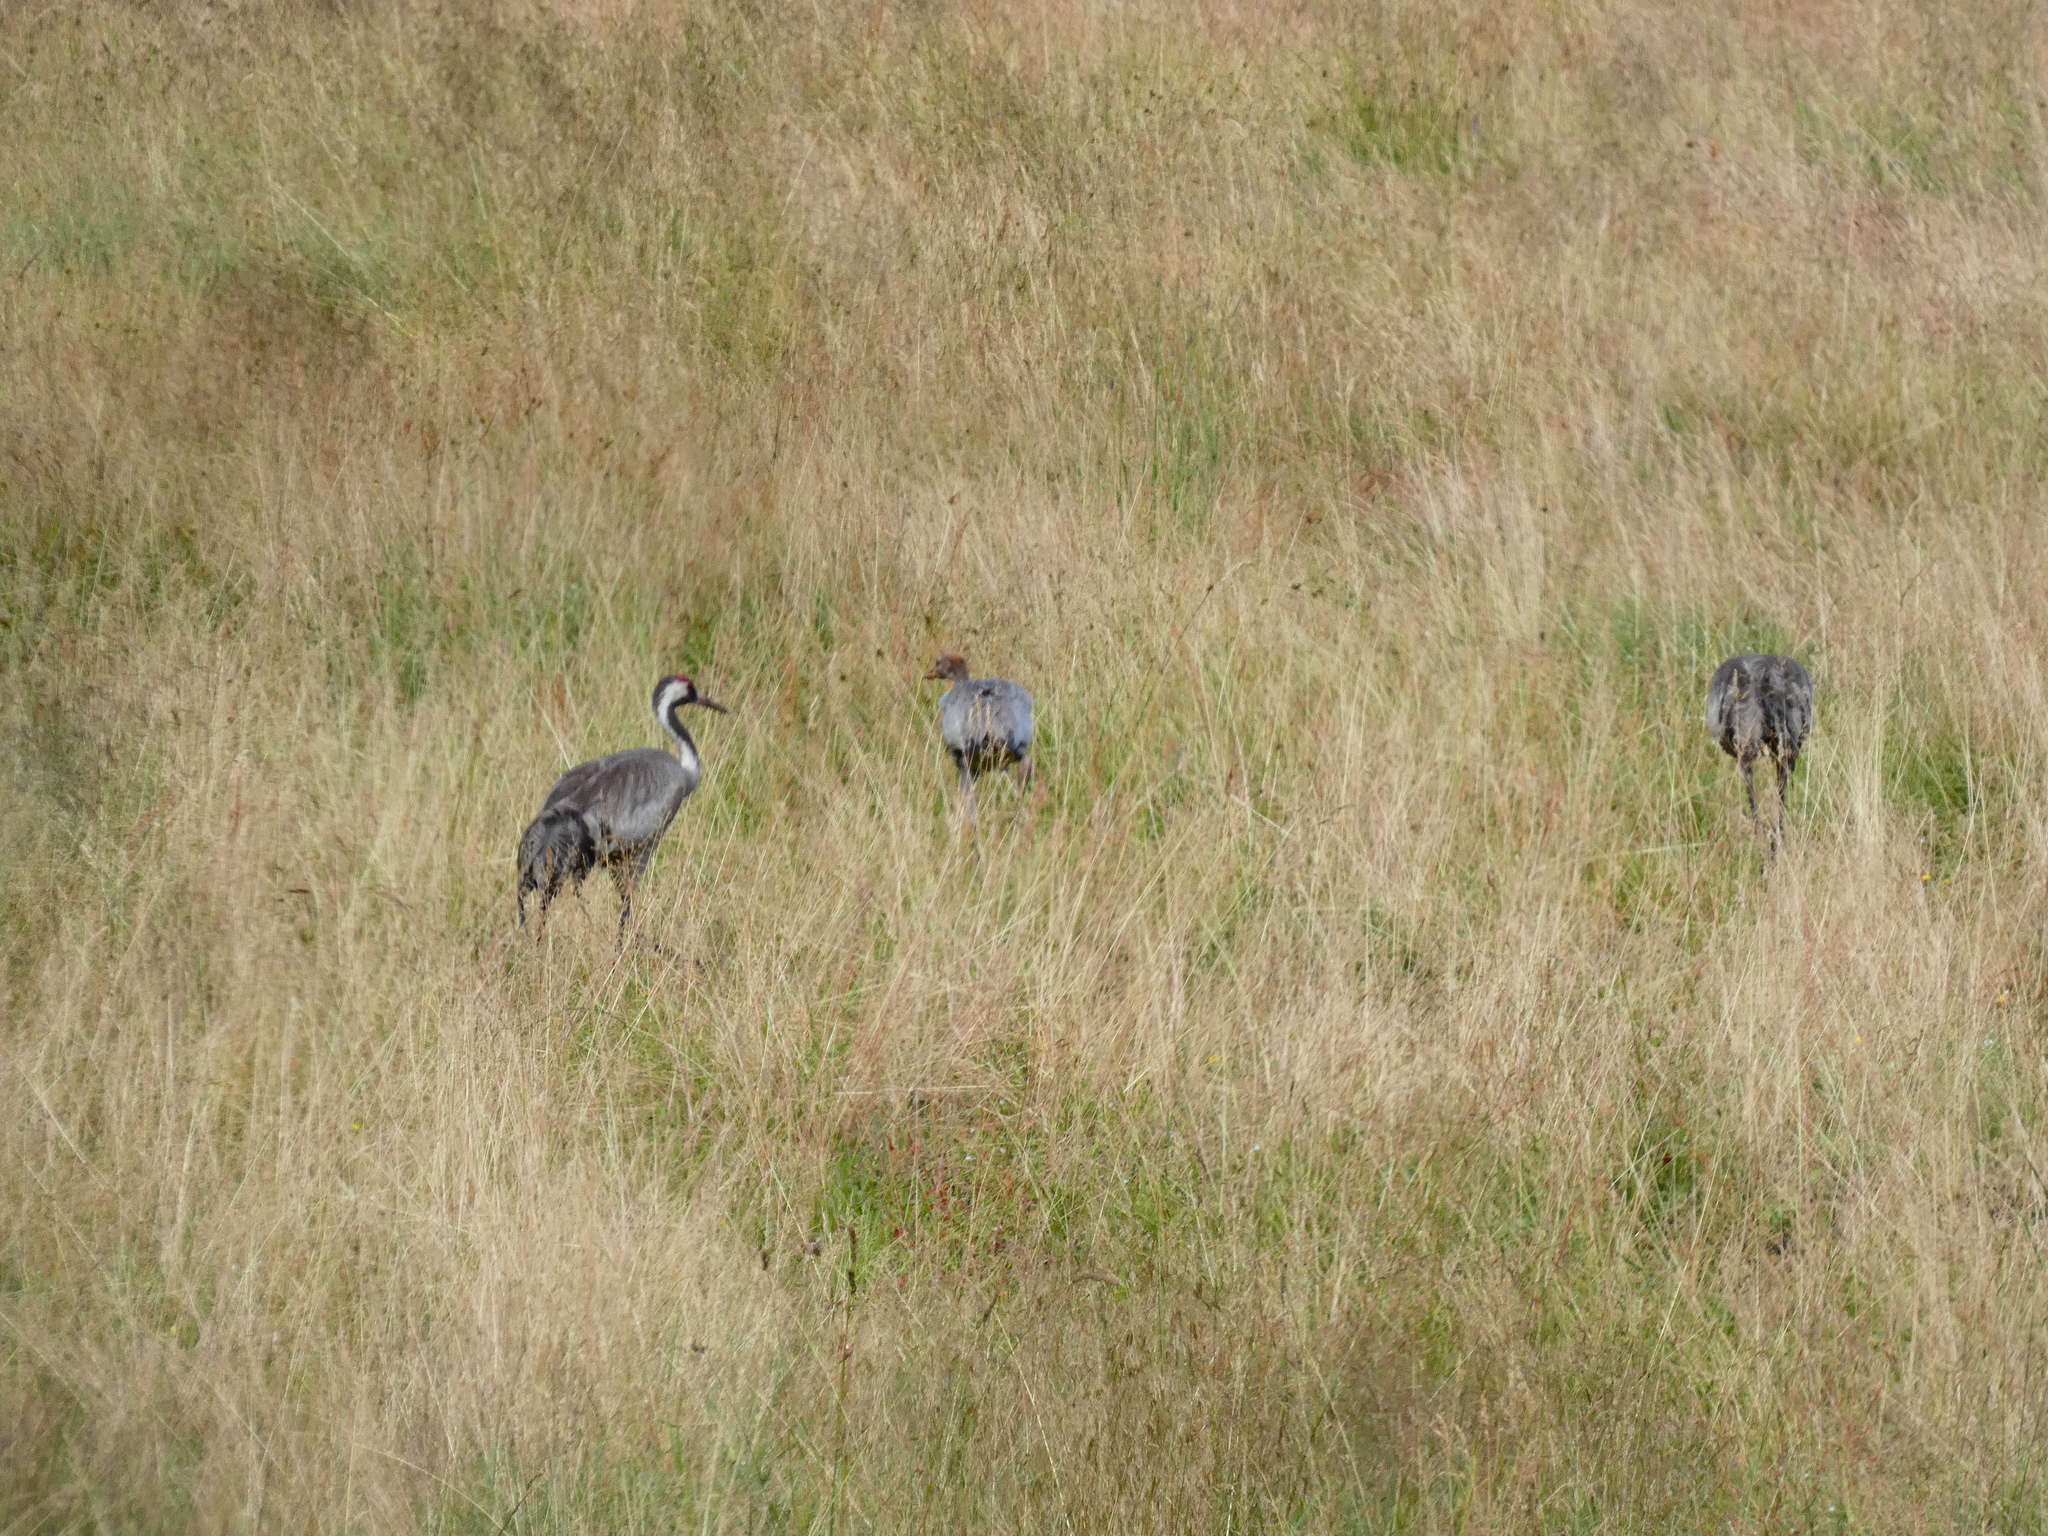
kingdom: Animalia
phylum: Chordata
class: Aves
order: Gruiformes
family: Gruidae
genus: Grus
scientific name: Grus grus
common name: Common crane
